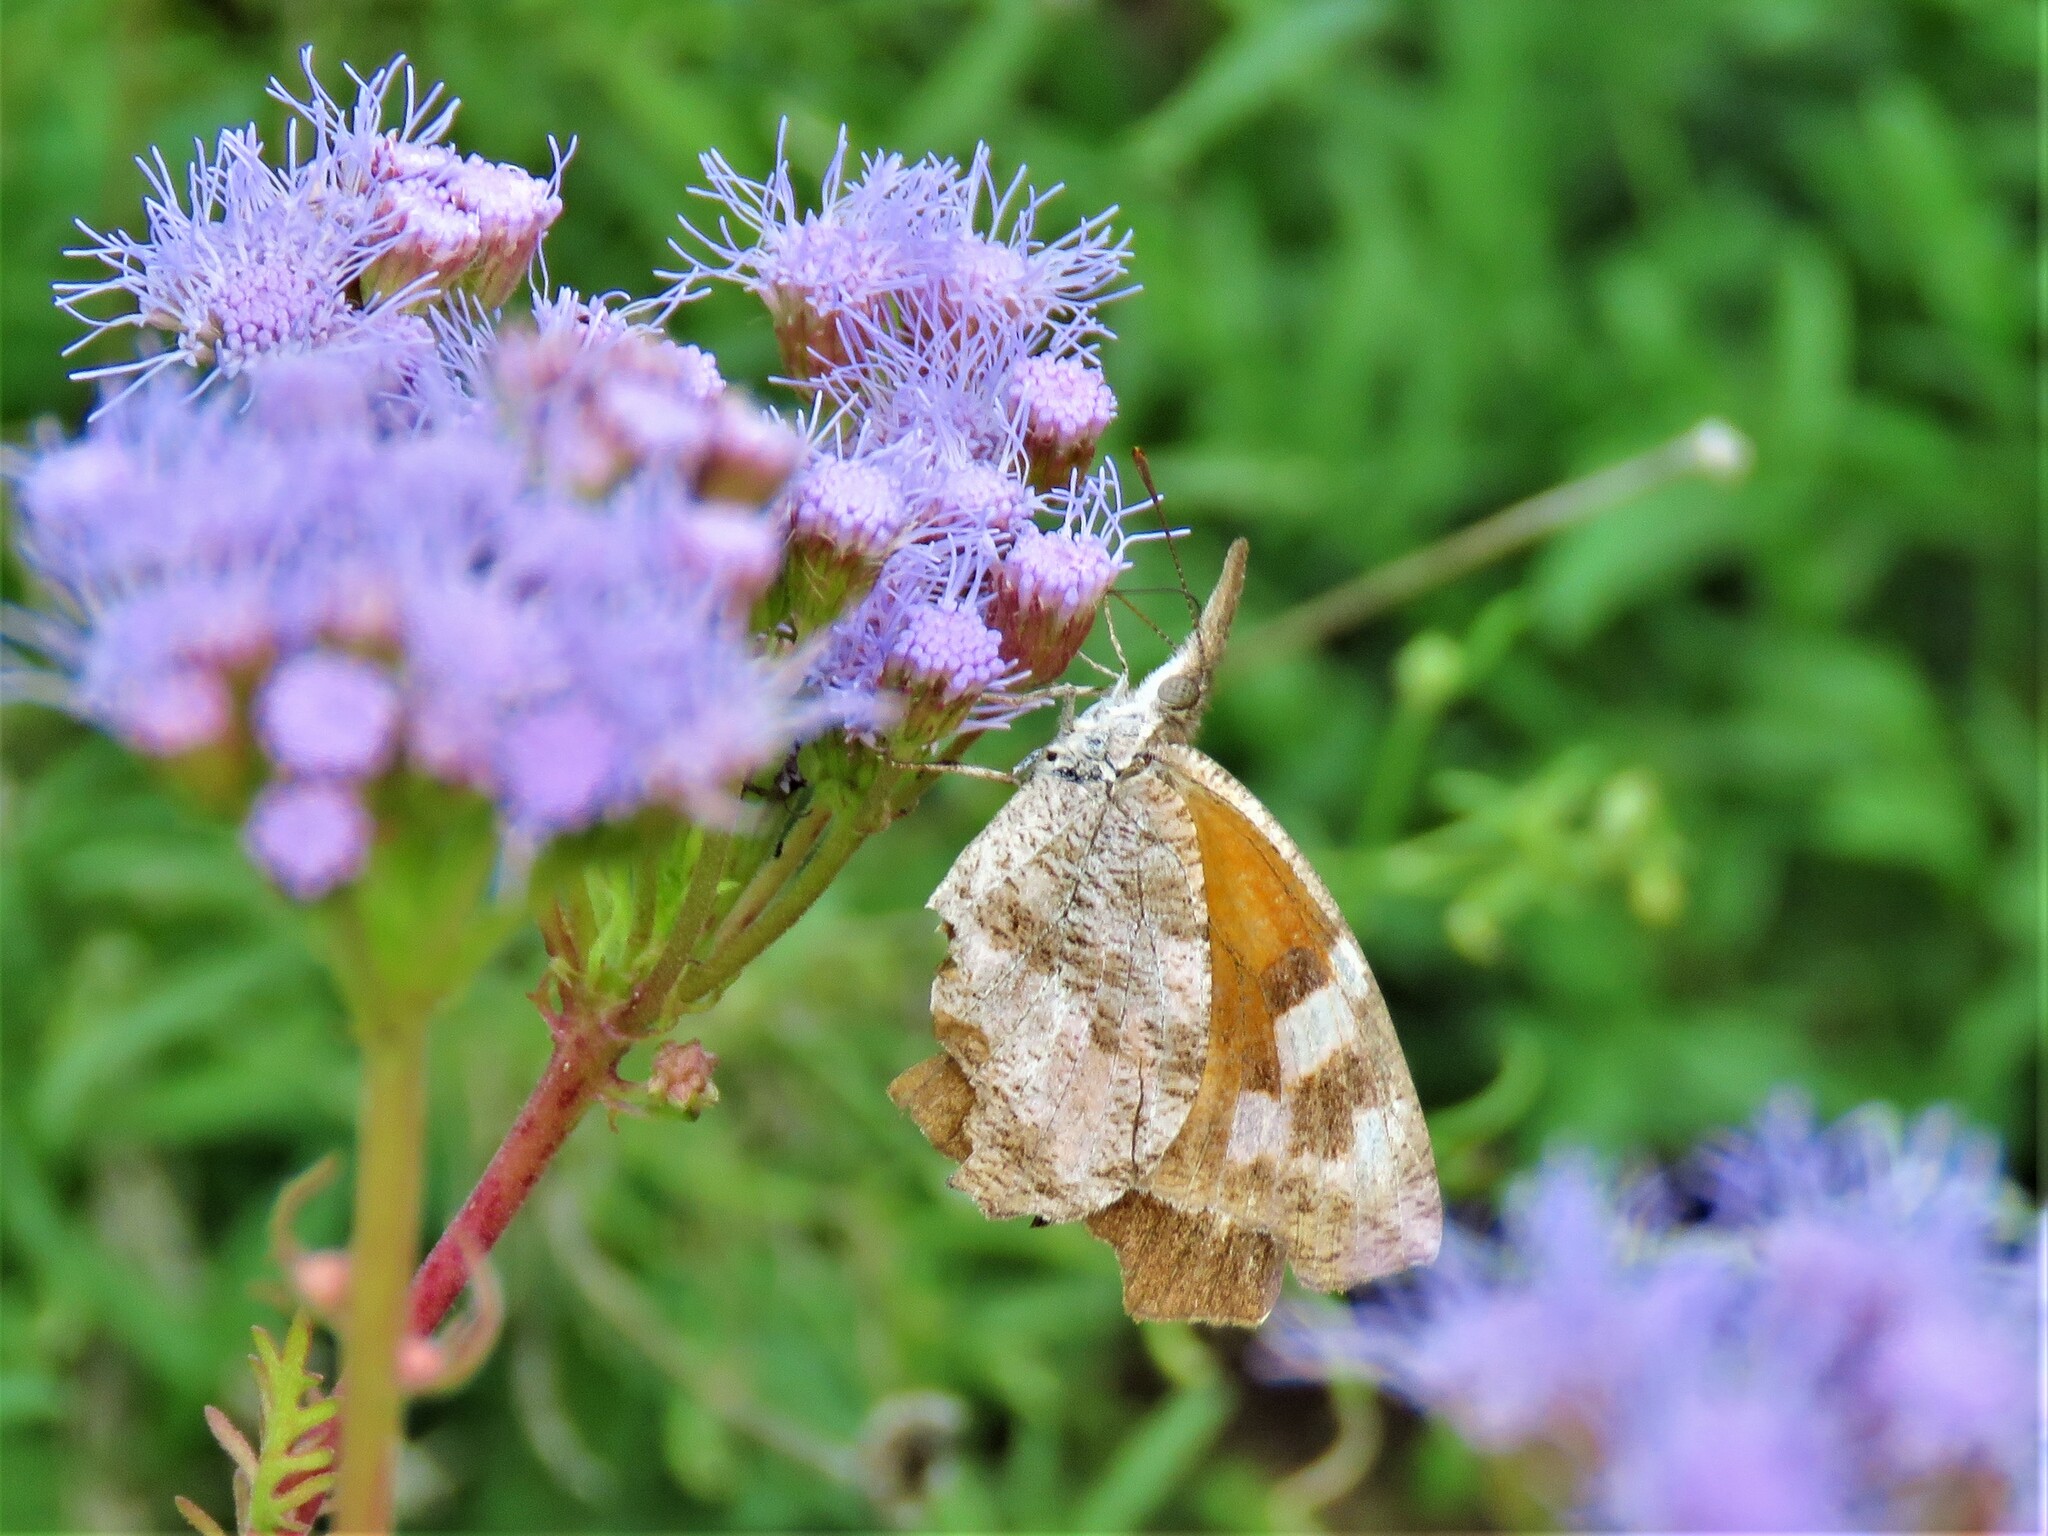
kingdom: Animalia
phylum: Arthropoda
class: Insecta
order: Lepidoptera
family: Nymphalidae
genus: Libytheana
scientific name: Libytheana carinenta
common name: American snout
